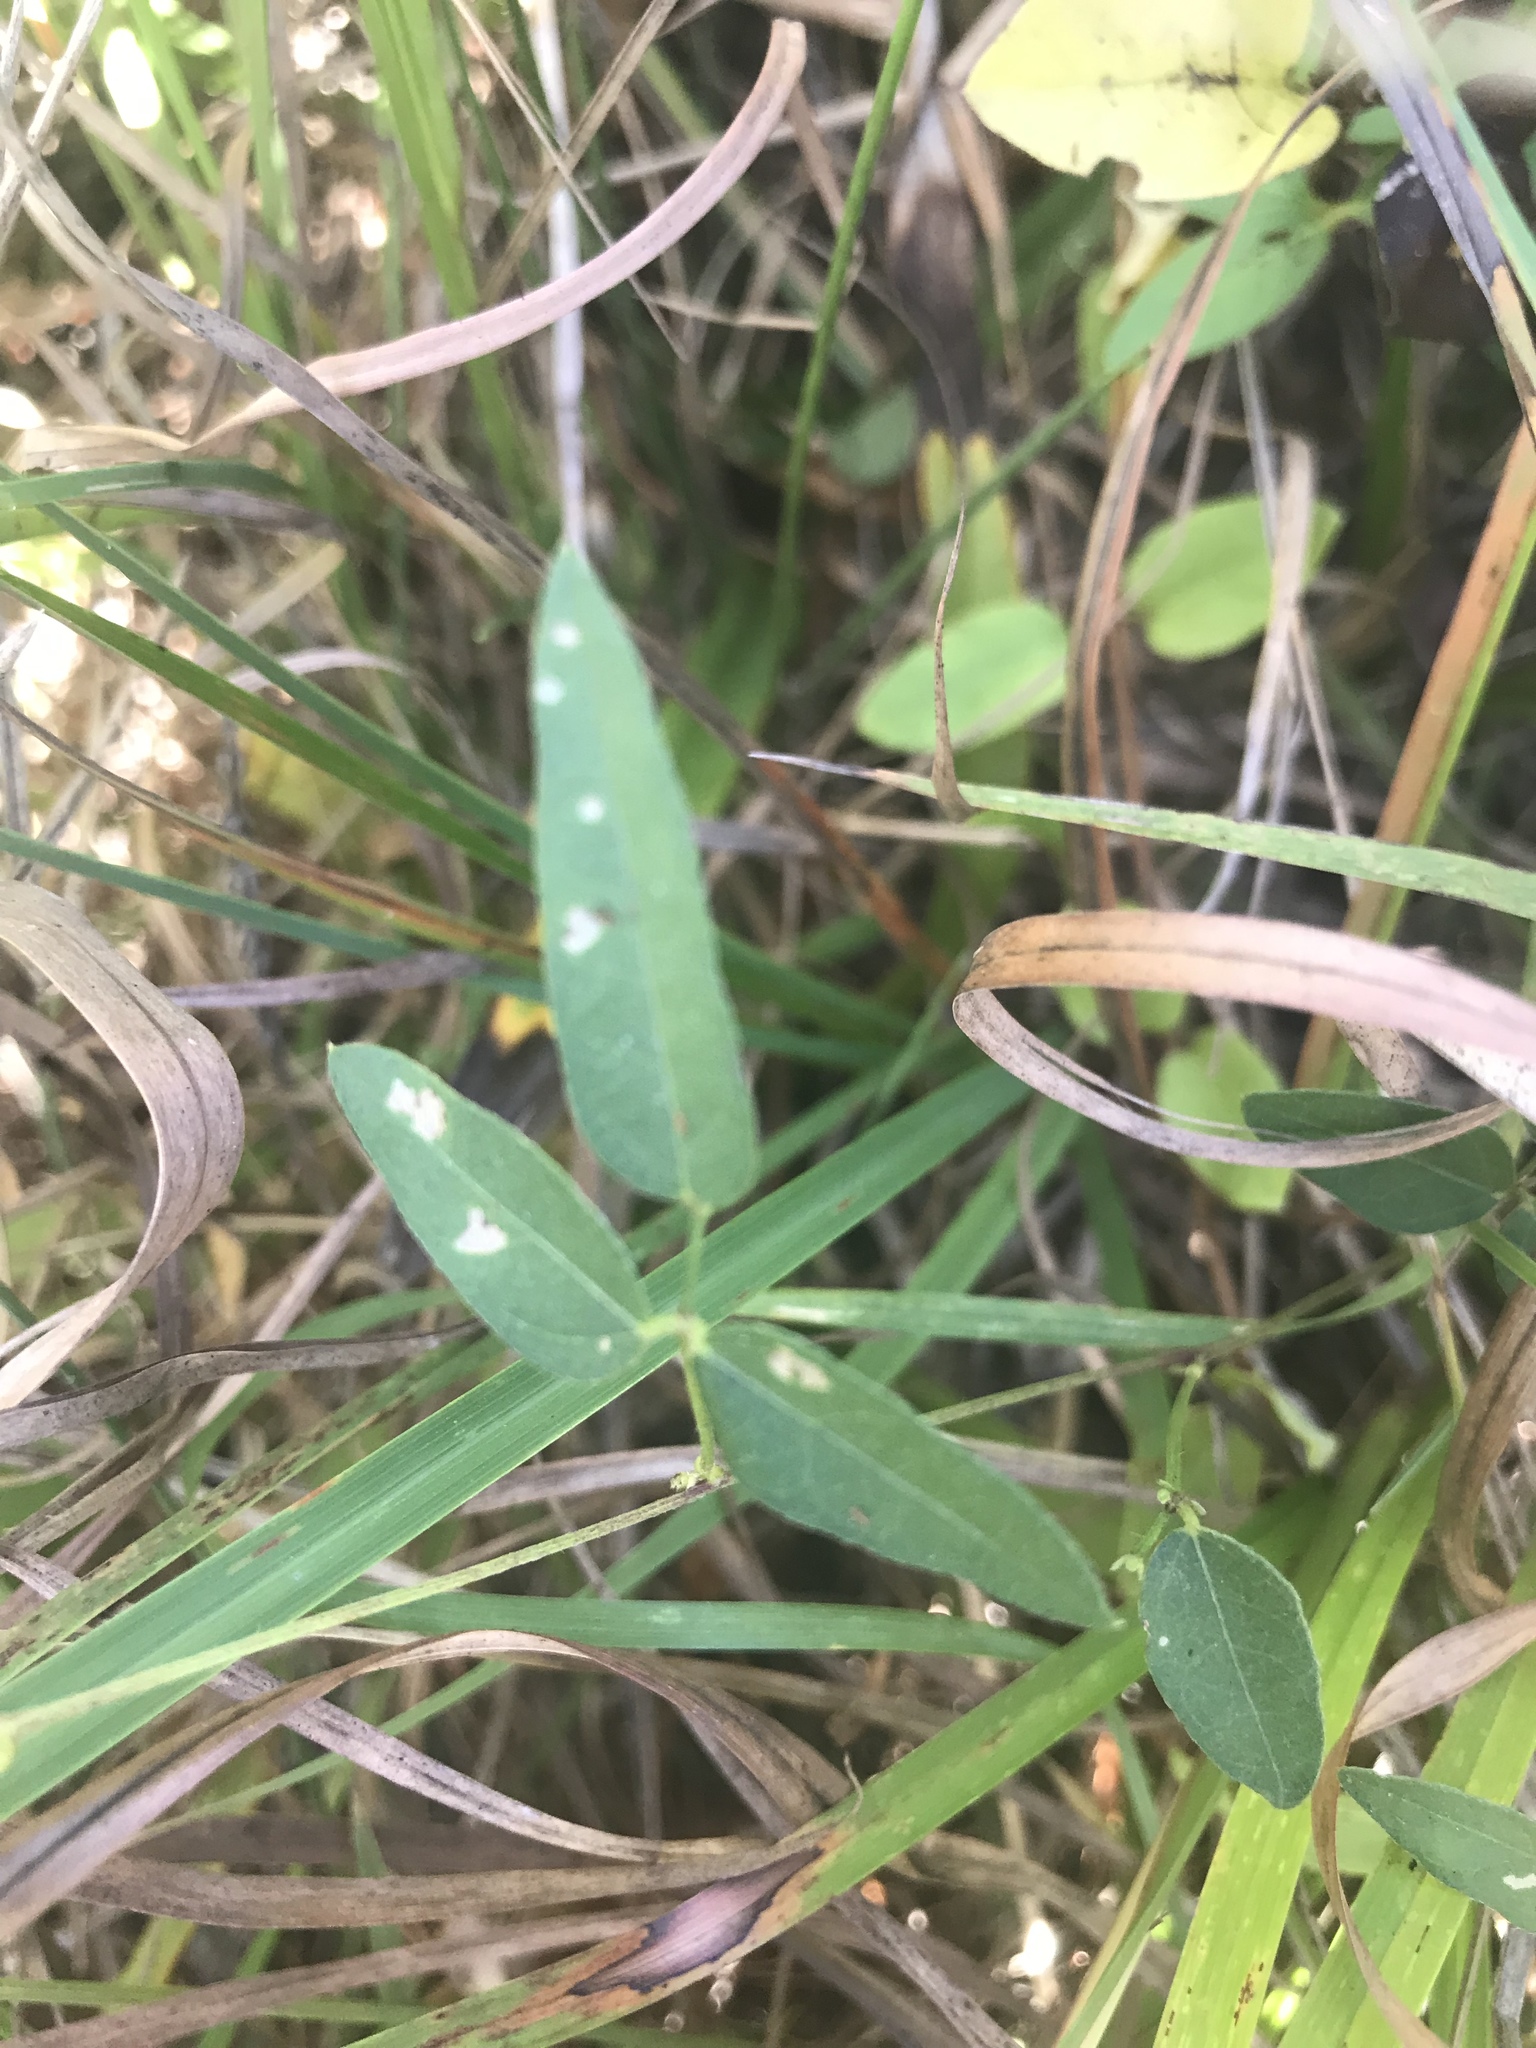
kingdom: Plantae
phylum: Tracheophyta
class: Magnoliopsida
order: Fabales
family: Fabaceae
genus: Strophostyles
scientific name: Strophostyles umbellata
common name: Perennial wild bean
